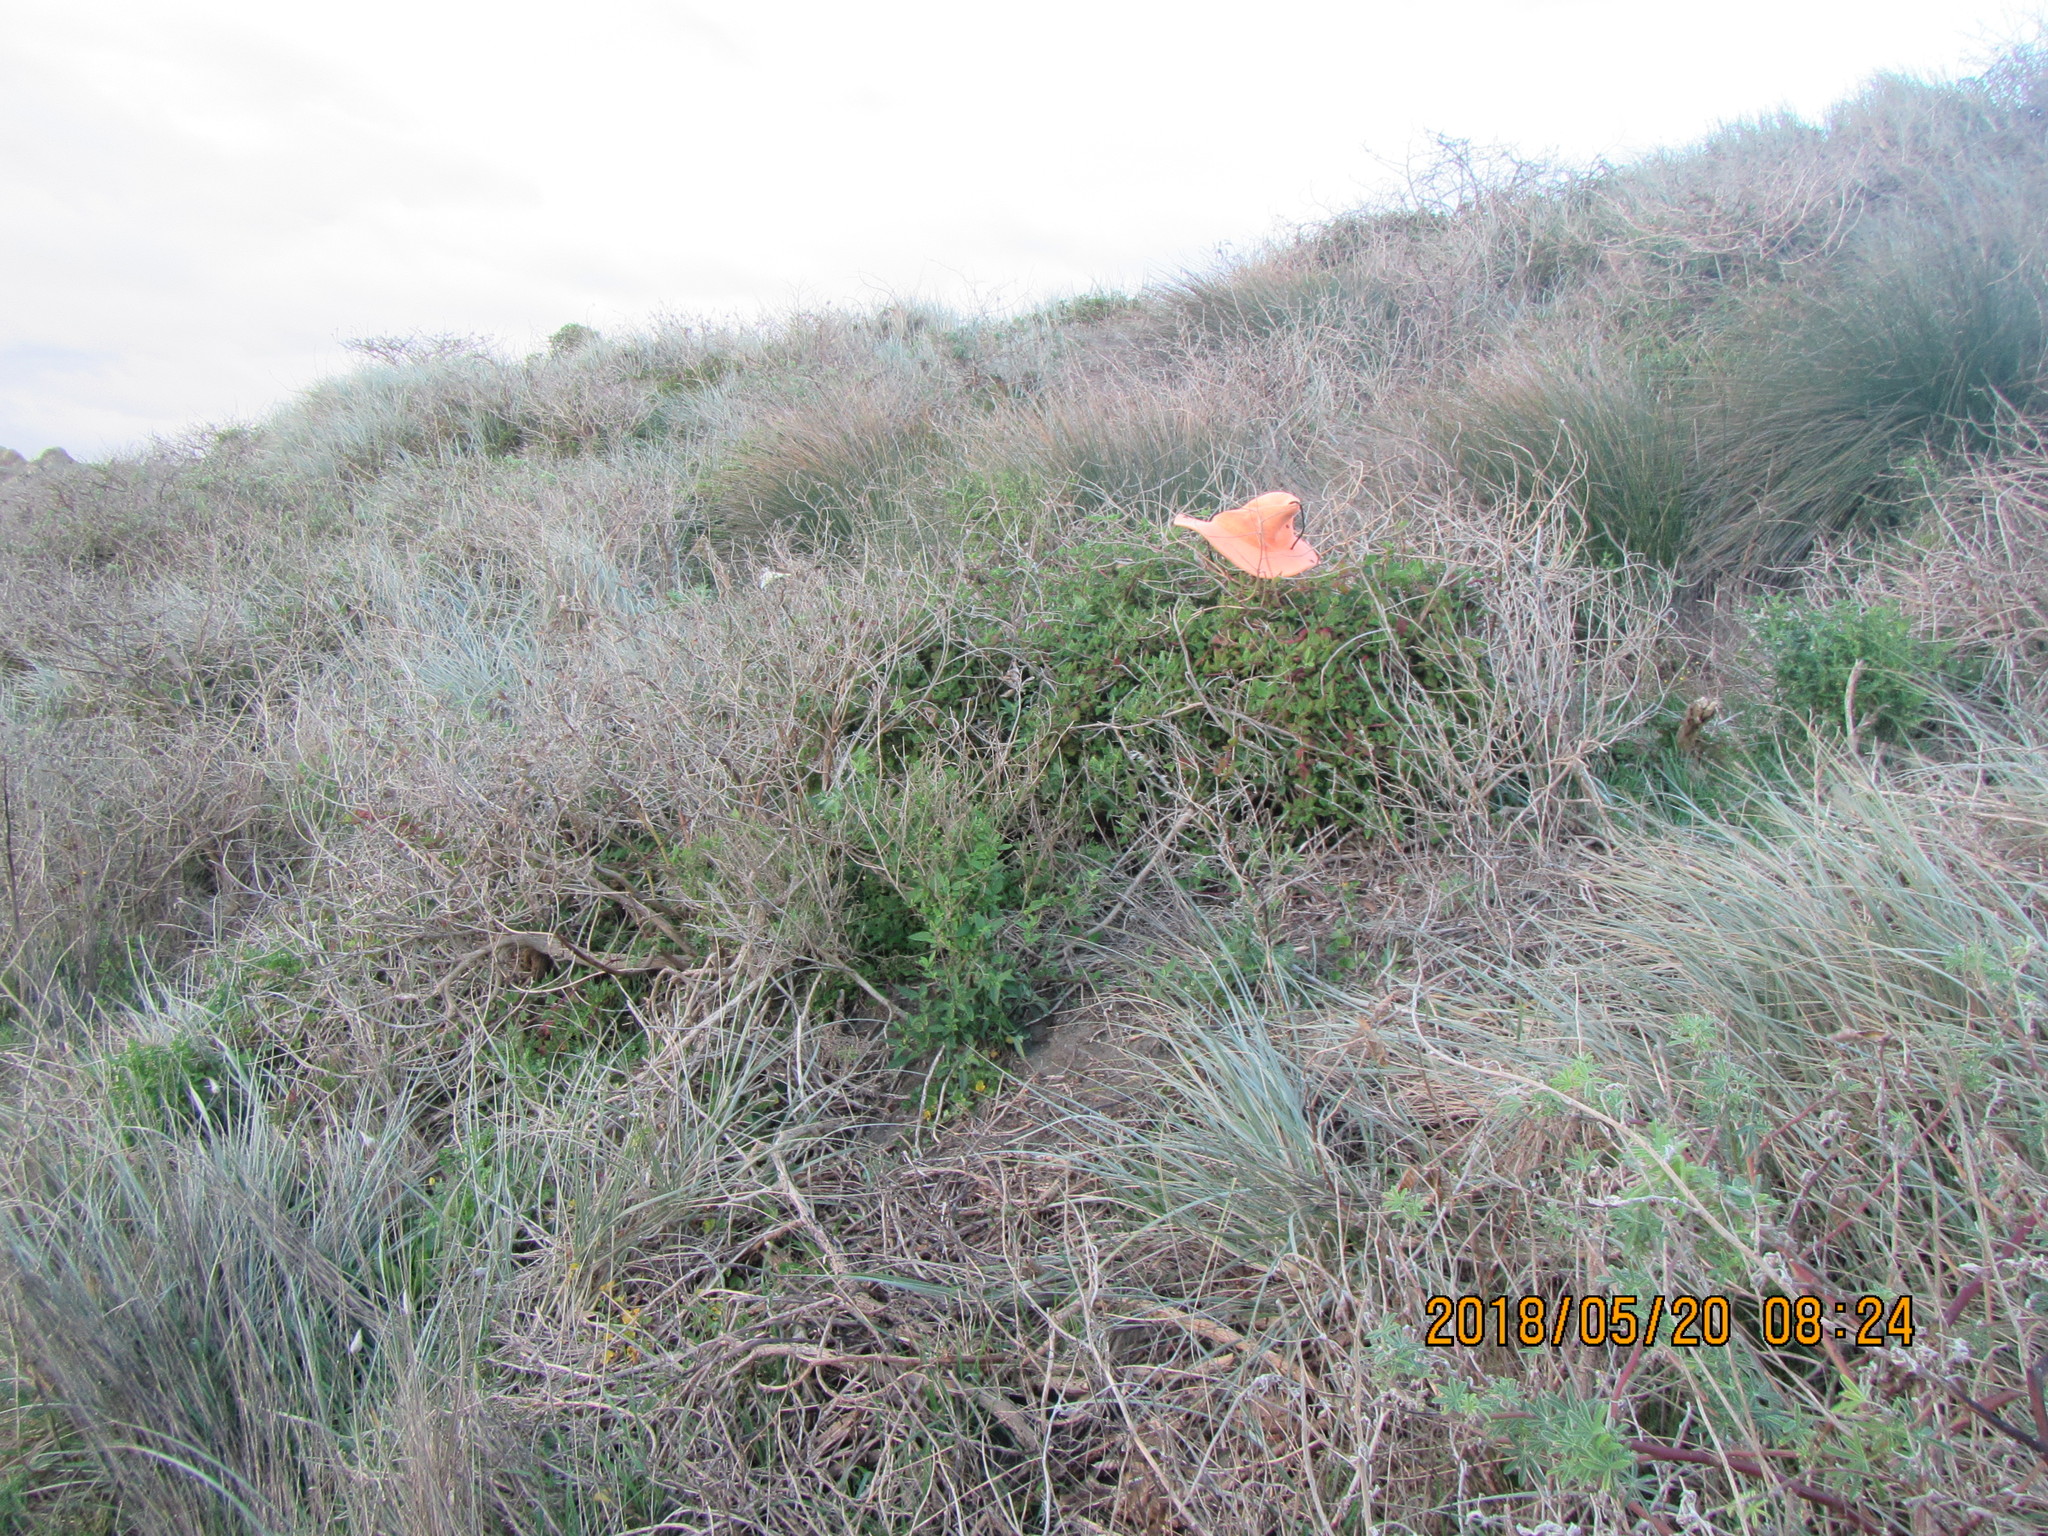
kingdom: Plantae
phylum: Tracheophyta
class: Magnoliopsida
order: Caryophyllales
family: Aizoaceae
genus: Tetragonia
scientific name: Tetragonia implexicoma
